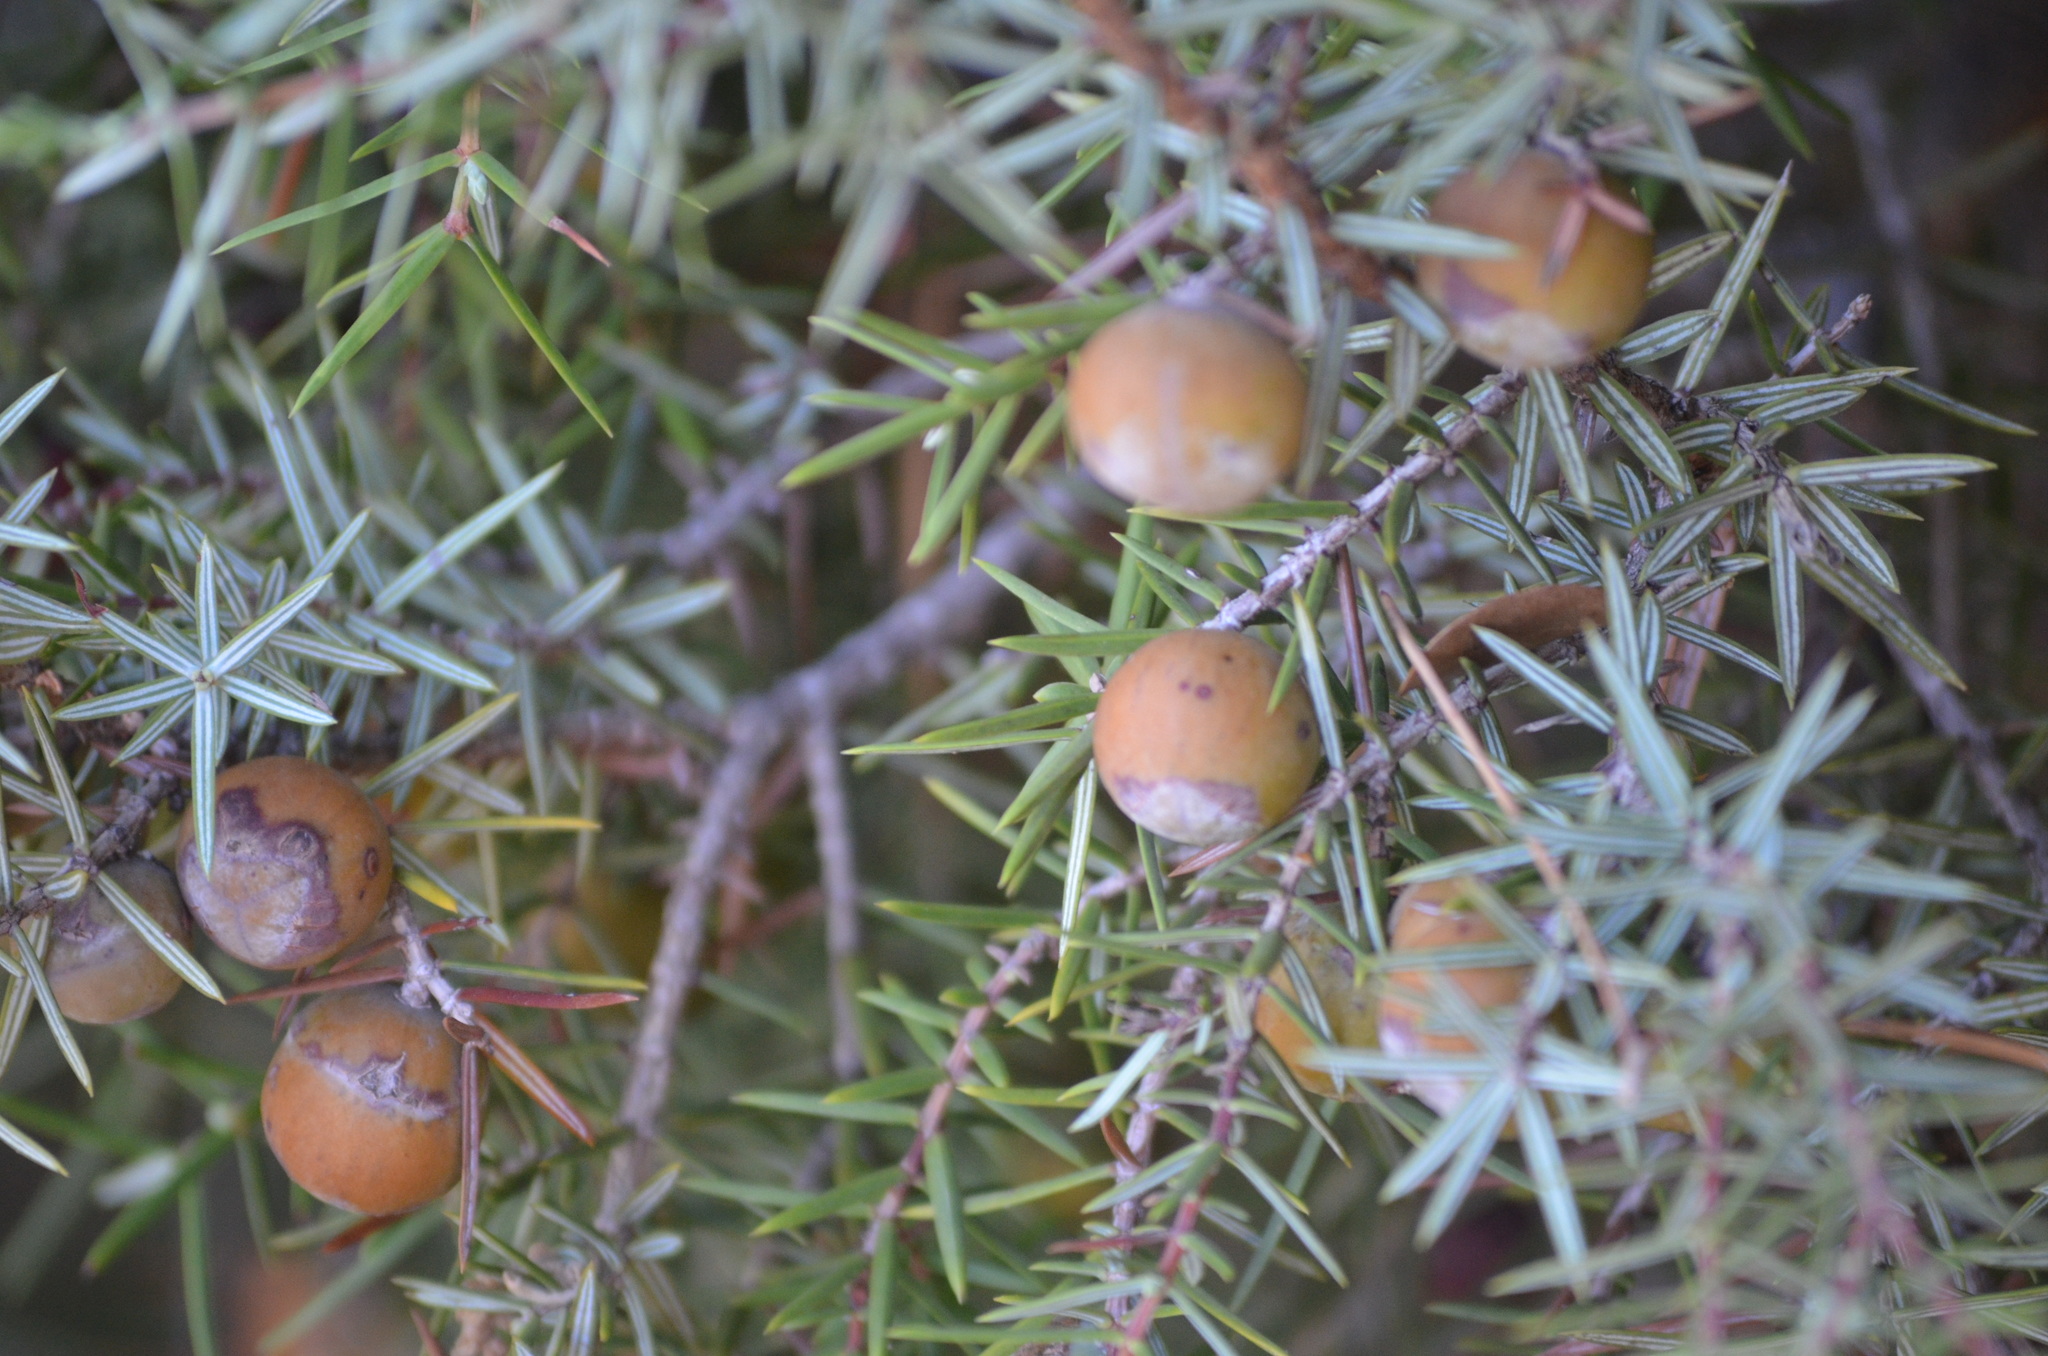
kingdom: Plantae
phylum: Tracheophyta
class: Pinopsida
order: Pinales
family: Cupressaceae
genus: Juniperus
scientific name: Juniperus oxycedrus
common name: Prickly juniper
